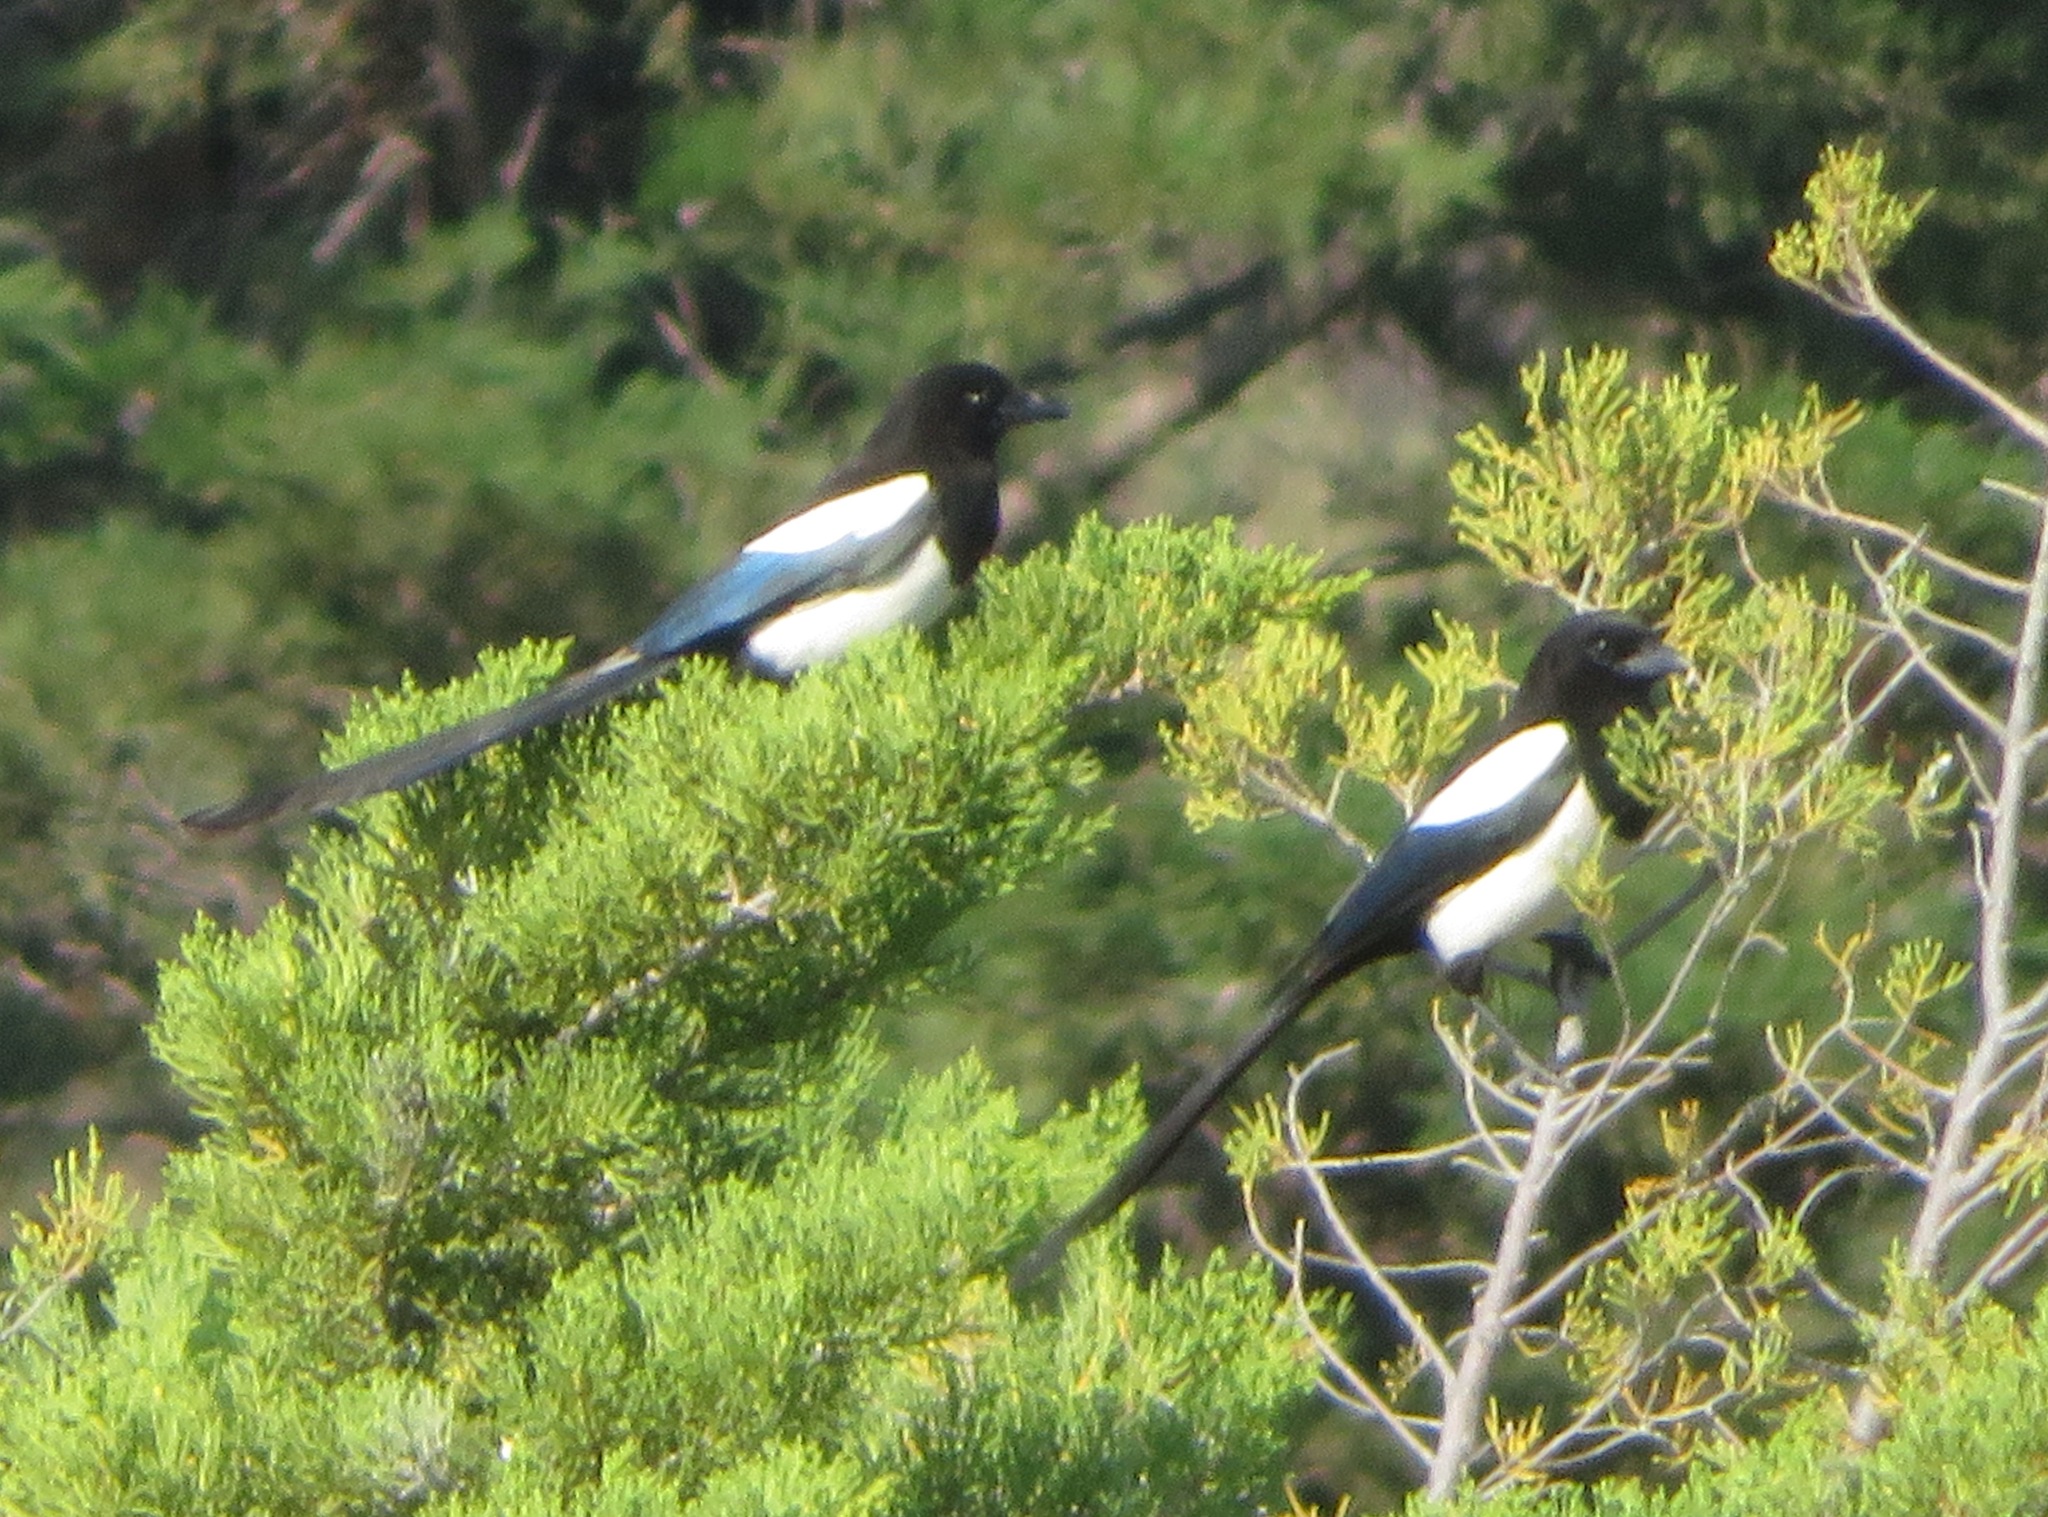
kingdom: Animalia
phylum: Chordata
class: Aves
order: Passeriformes
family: Corvidae
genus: Pica
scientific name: Pica pica
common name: Eurasian magpie
